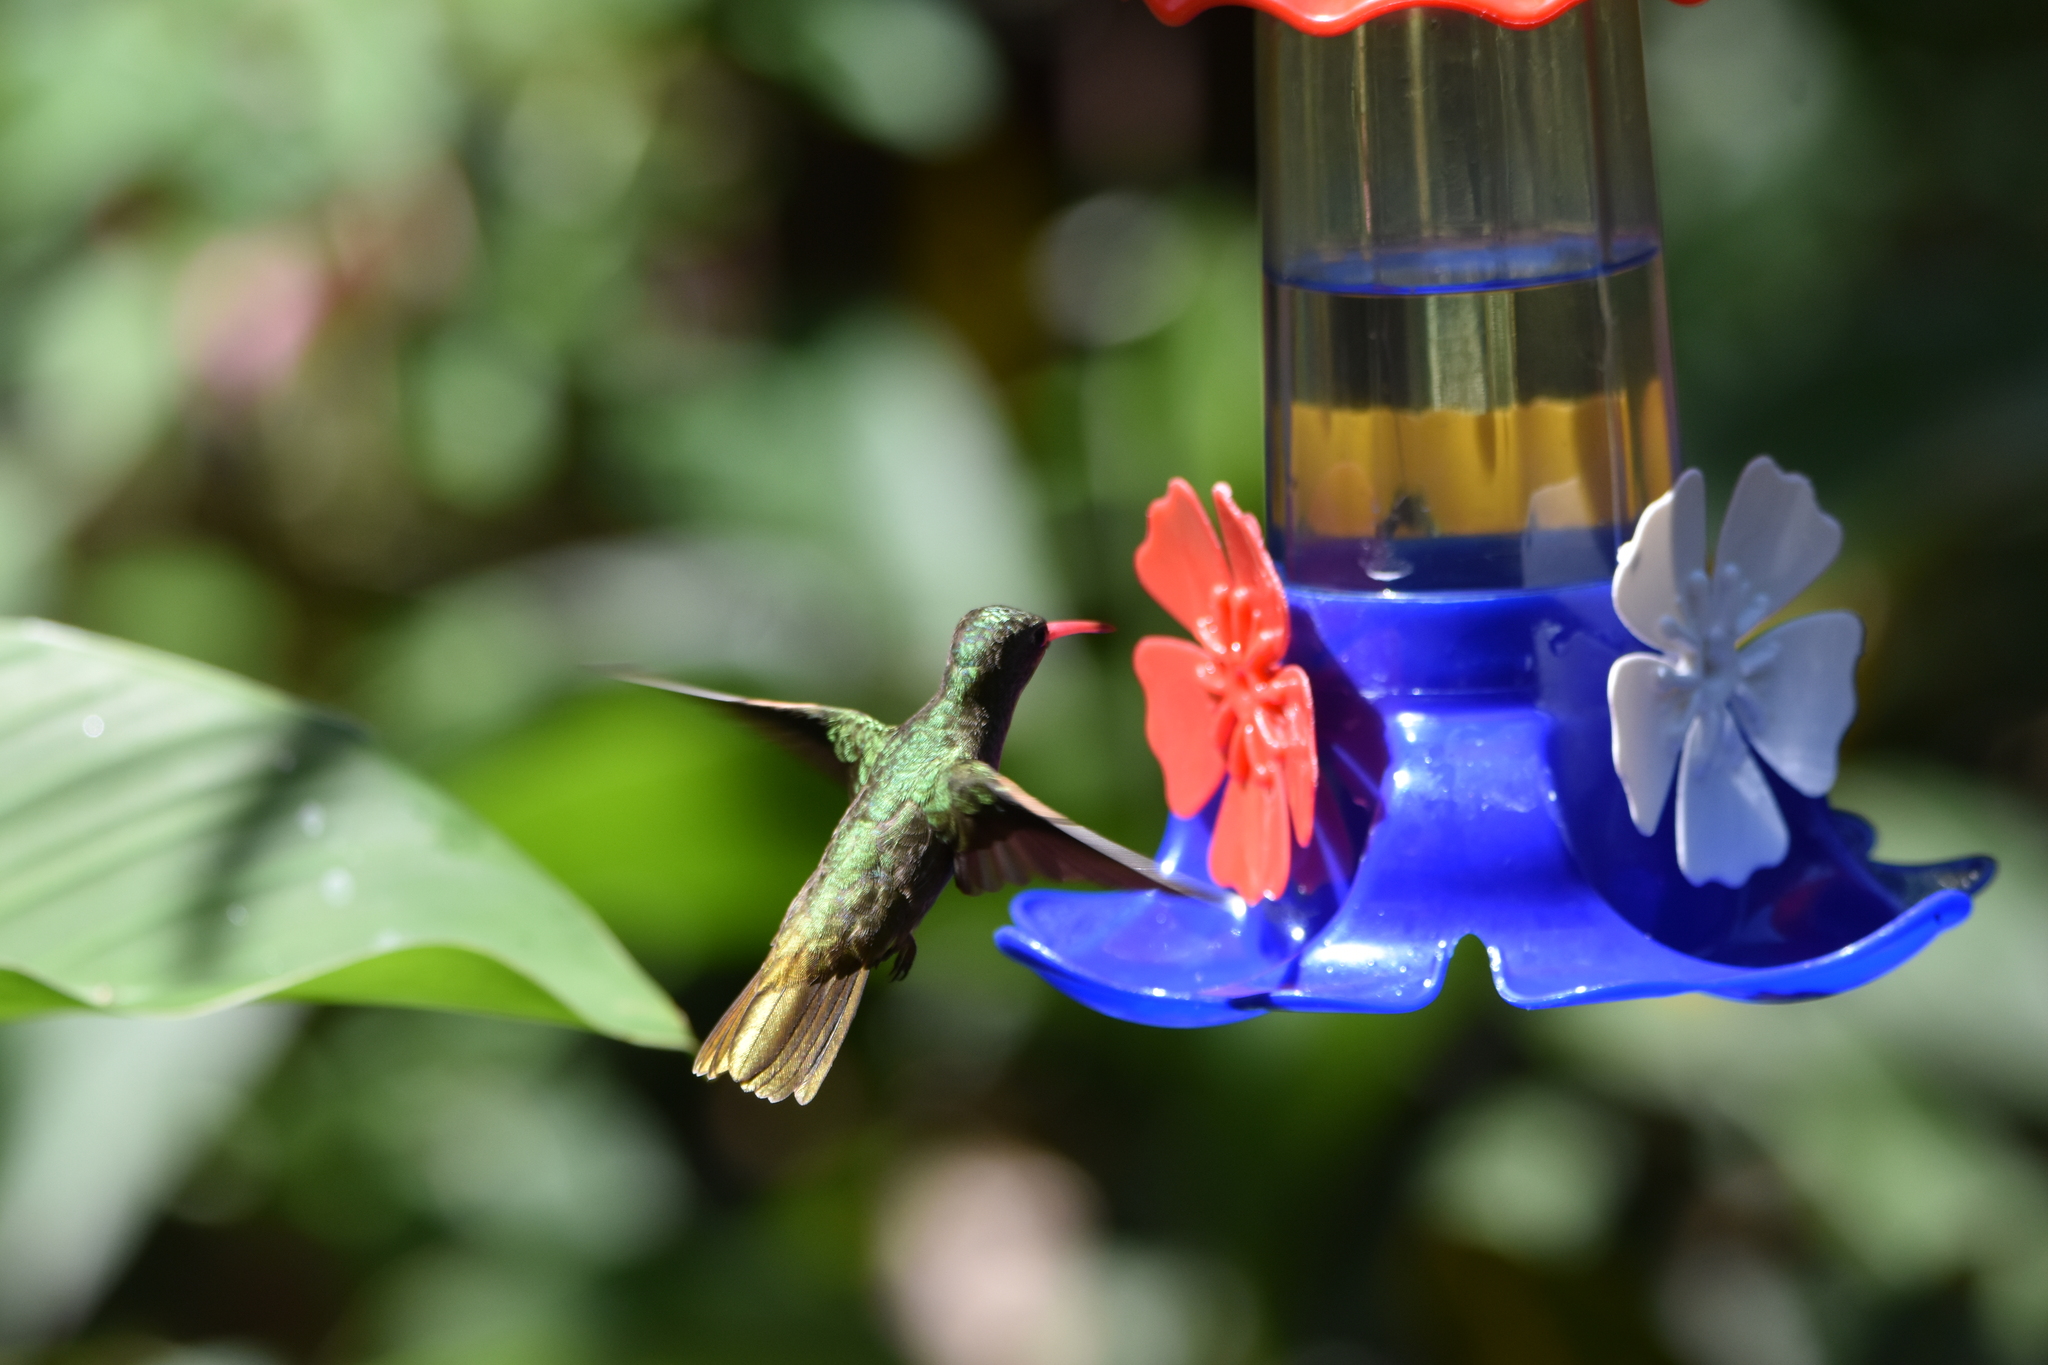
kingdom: Animalia
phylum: Chordata
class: Aves
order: Apodiformes
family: Trochilidae
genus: Hylocharis
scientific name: Hylocharis chrysura
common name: Gilded sapphire
